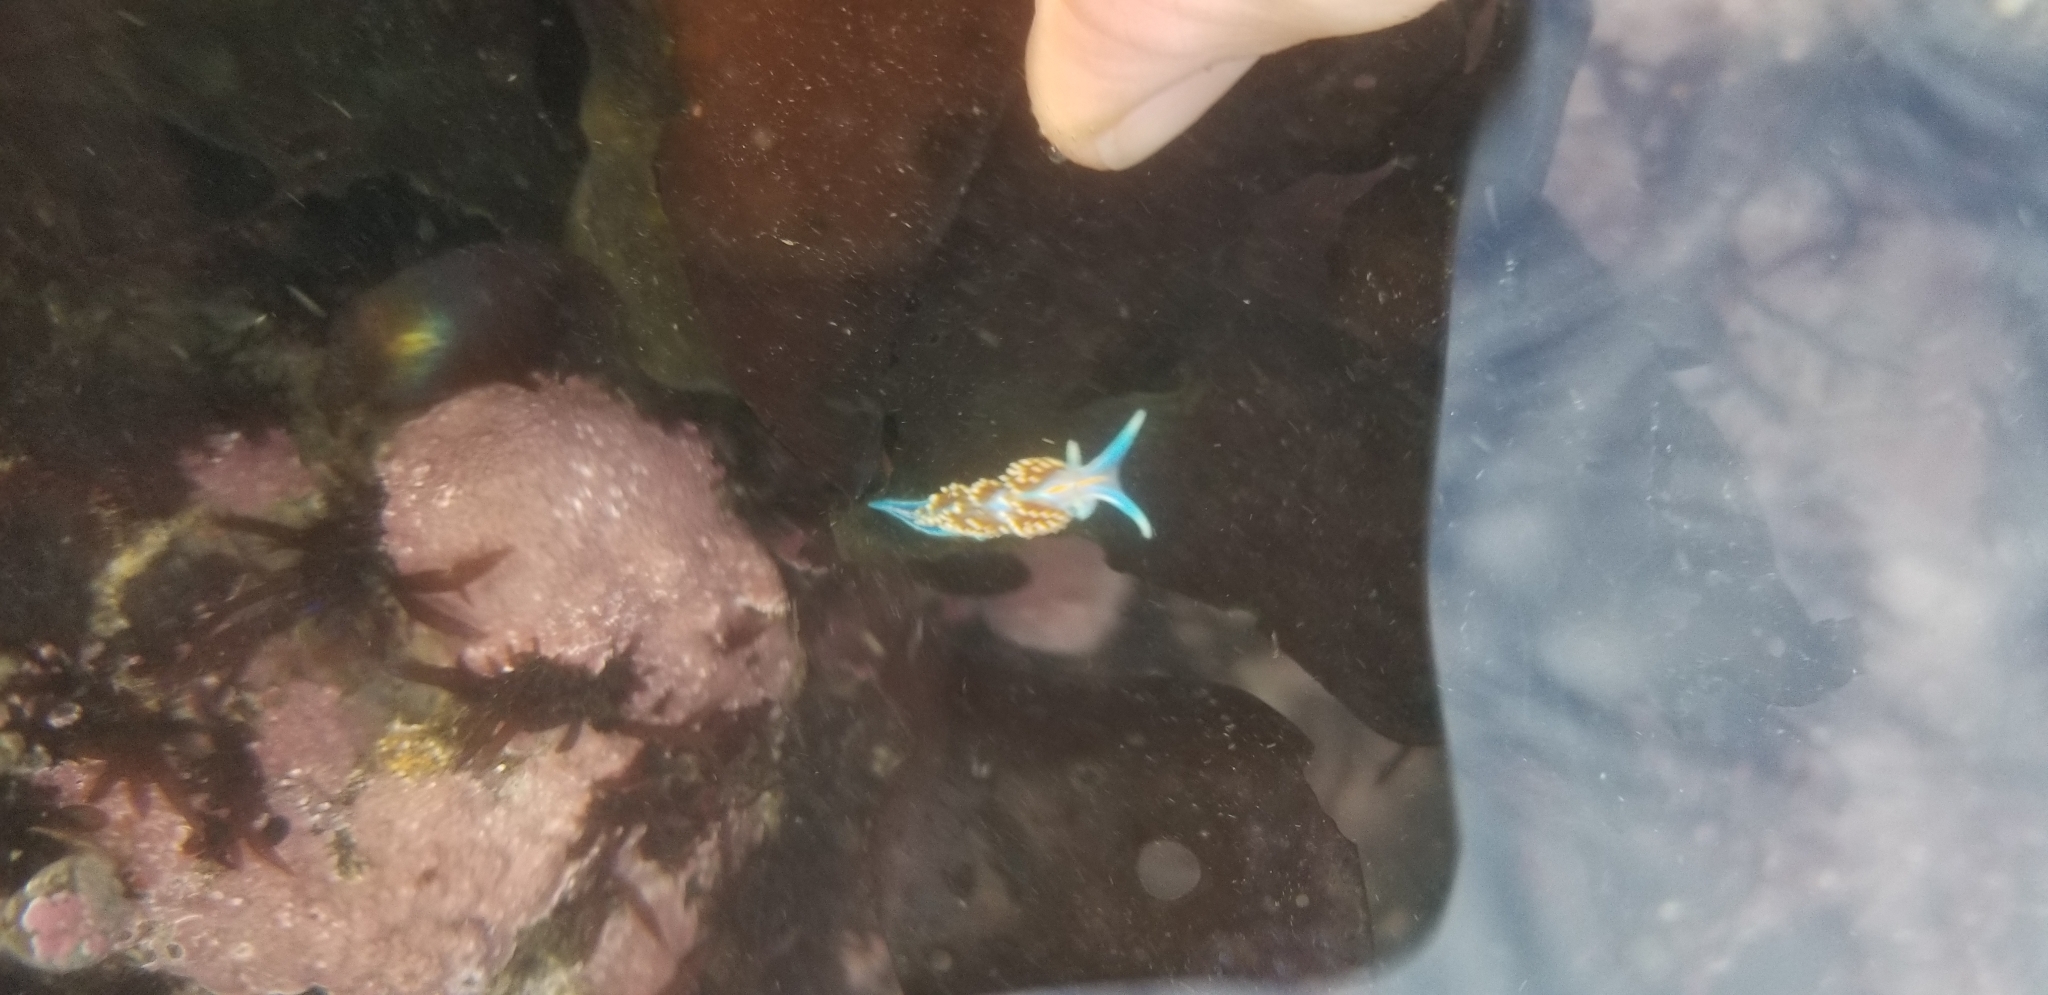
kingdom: Animalia
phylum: Mollusca
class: Gastropoda
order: Nudibranchia
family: Myrrhinidae
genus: Hermissenda
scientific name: Hermissenda opalescens
